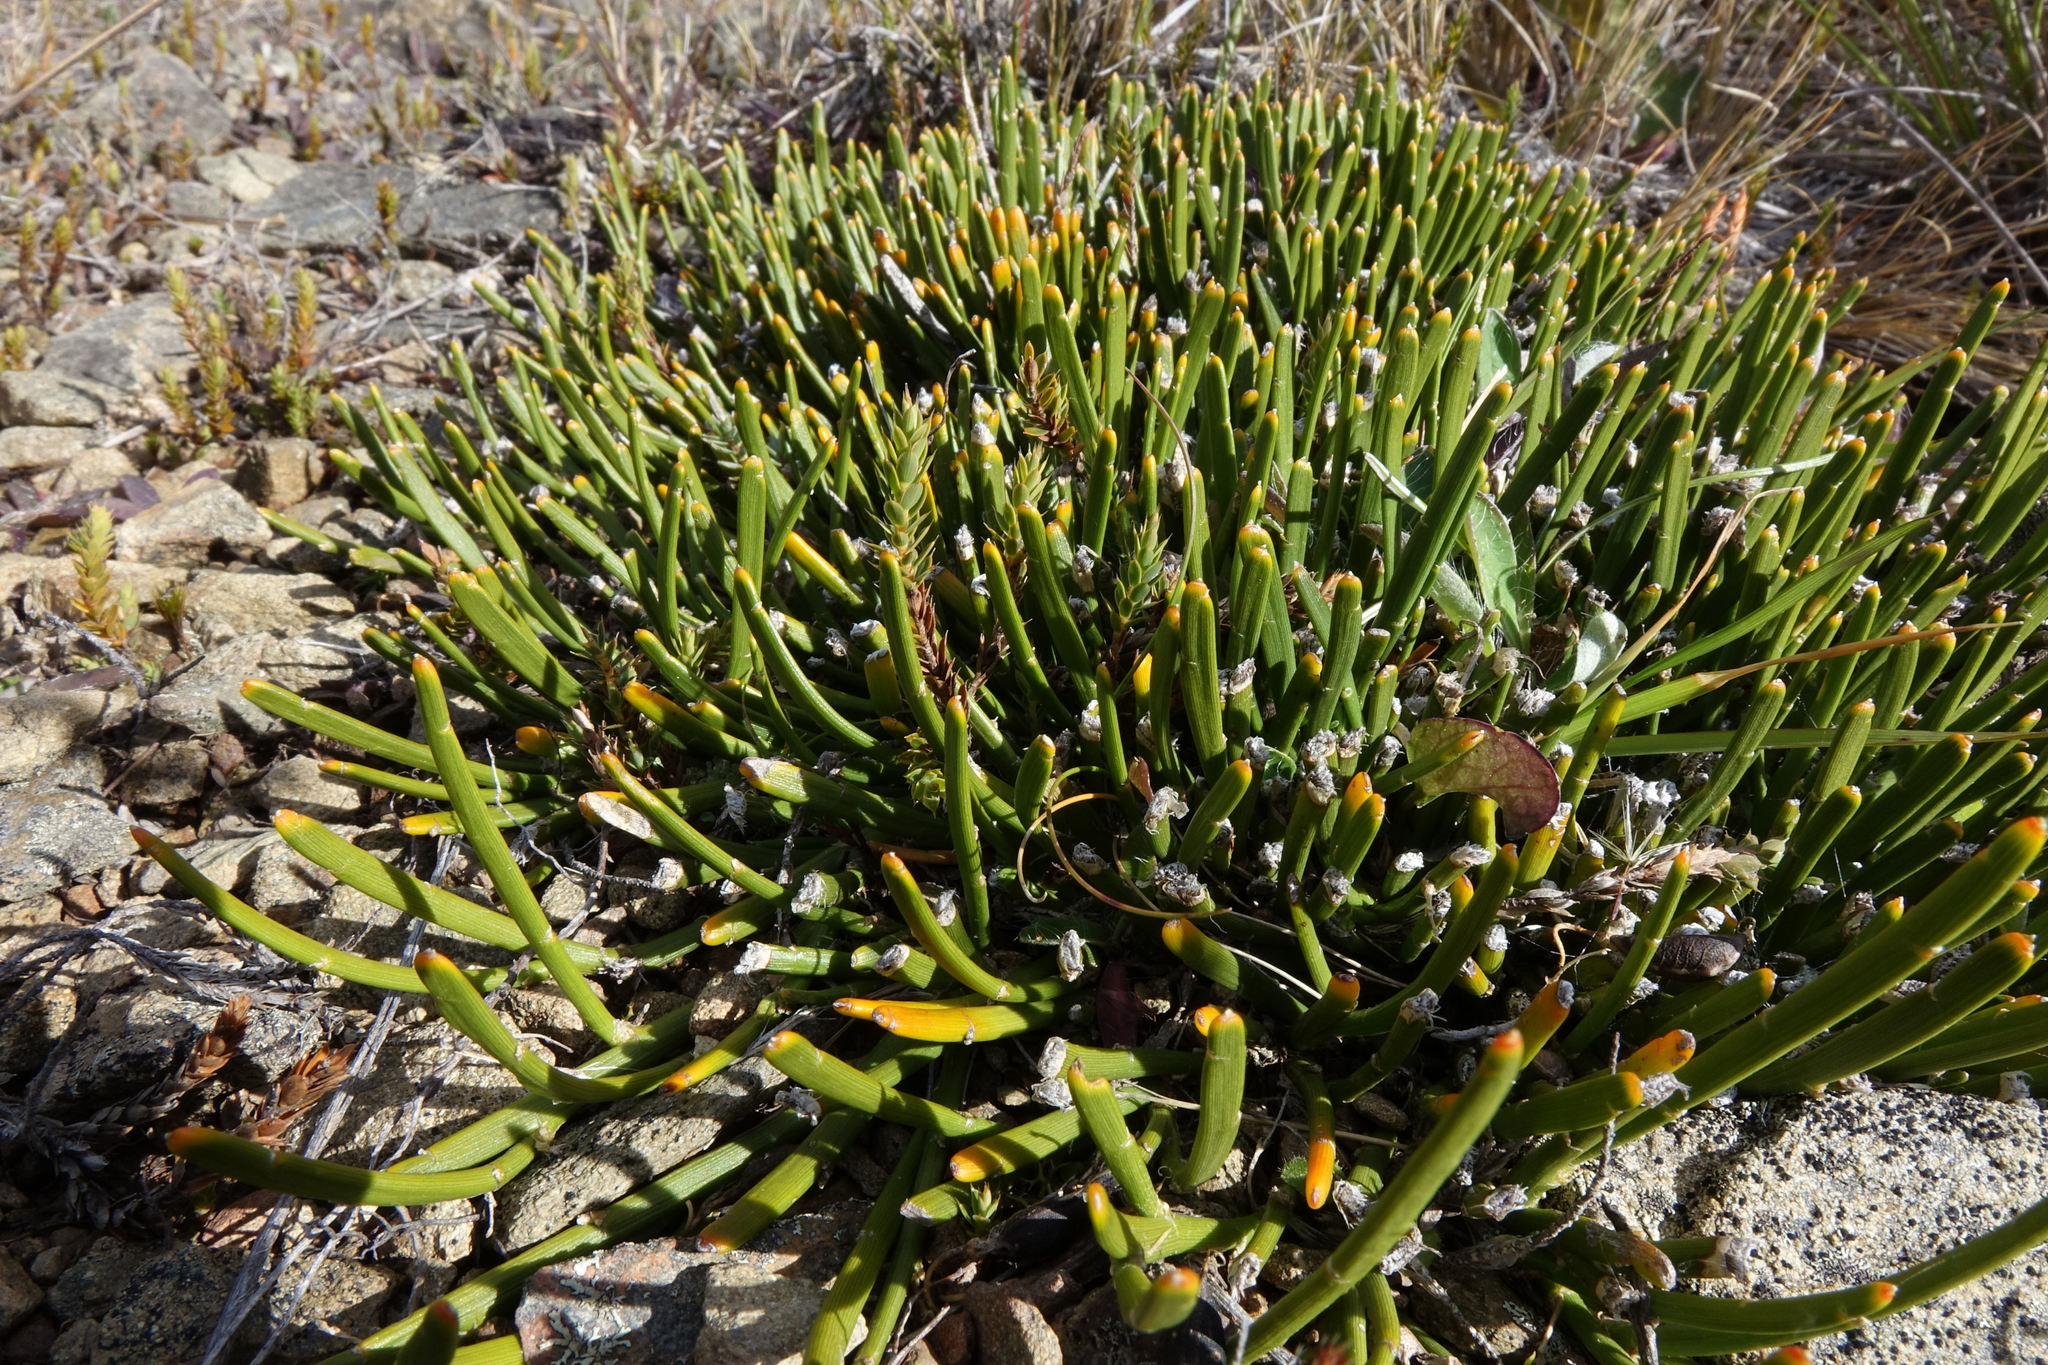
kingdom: Plantae
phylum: Tracheophyta
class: Magnoliopsida
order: Fabales
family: Fabaceae
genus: Carmichaelia
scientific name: Carmichaelia vexillata
